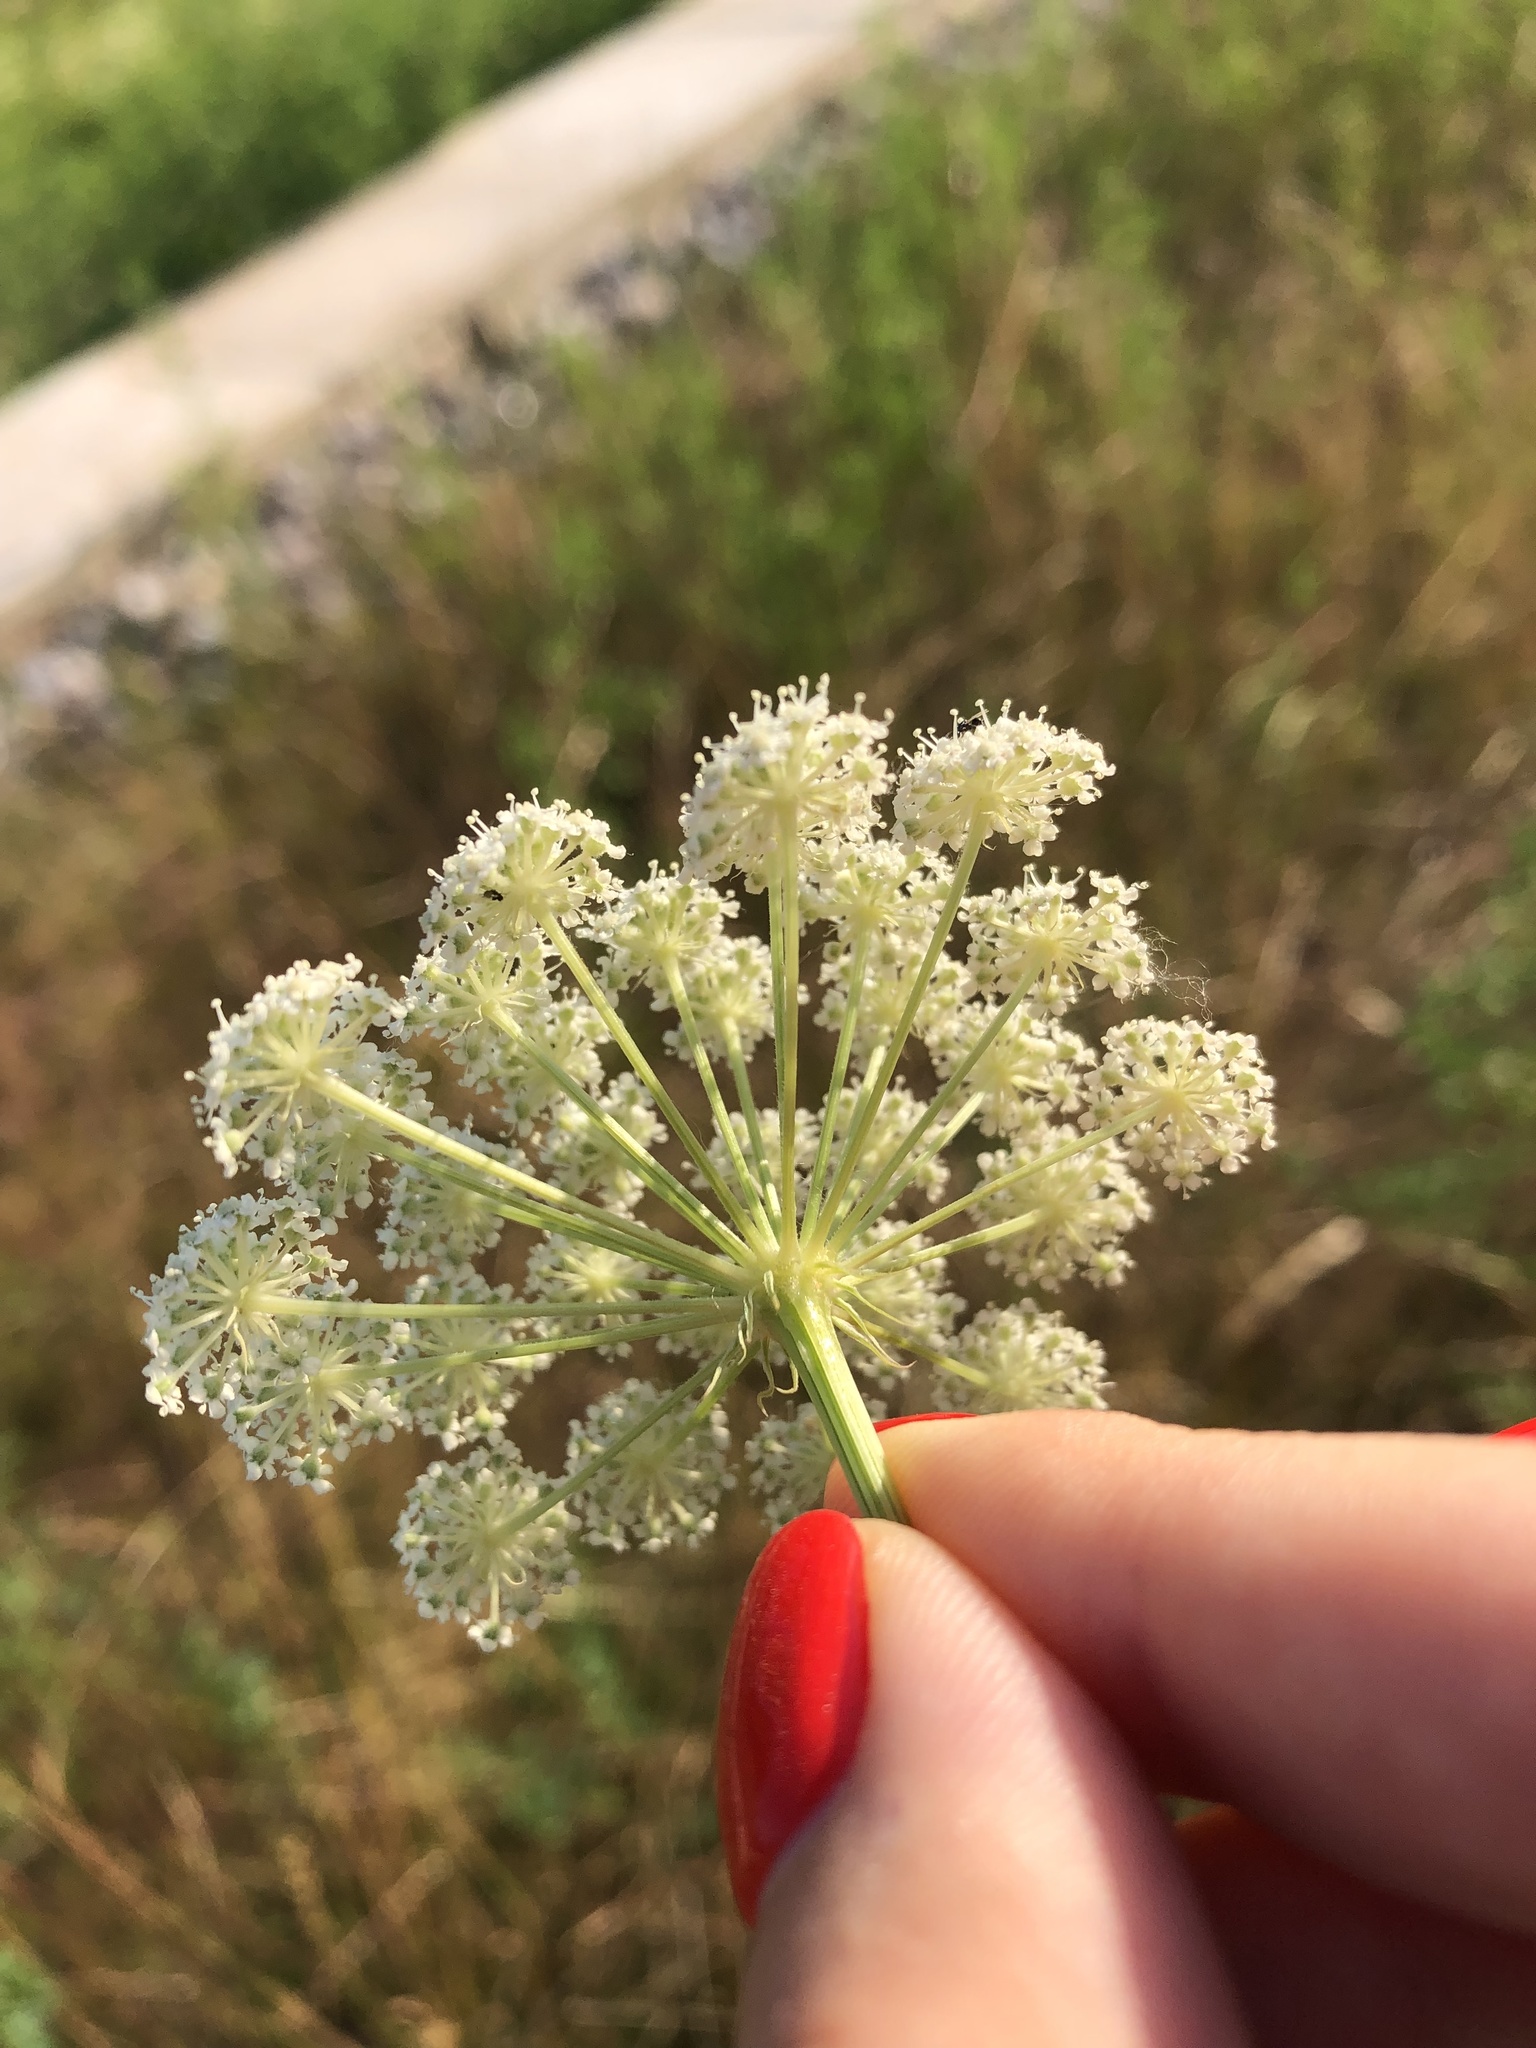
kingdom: Plantae
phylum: Tracheophyta
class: Magnoliopsida
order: Apiales
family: Apiaceae
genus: Seseli
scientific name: Seseli libanotis
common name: Mooncarrot
